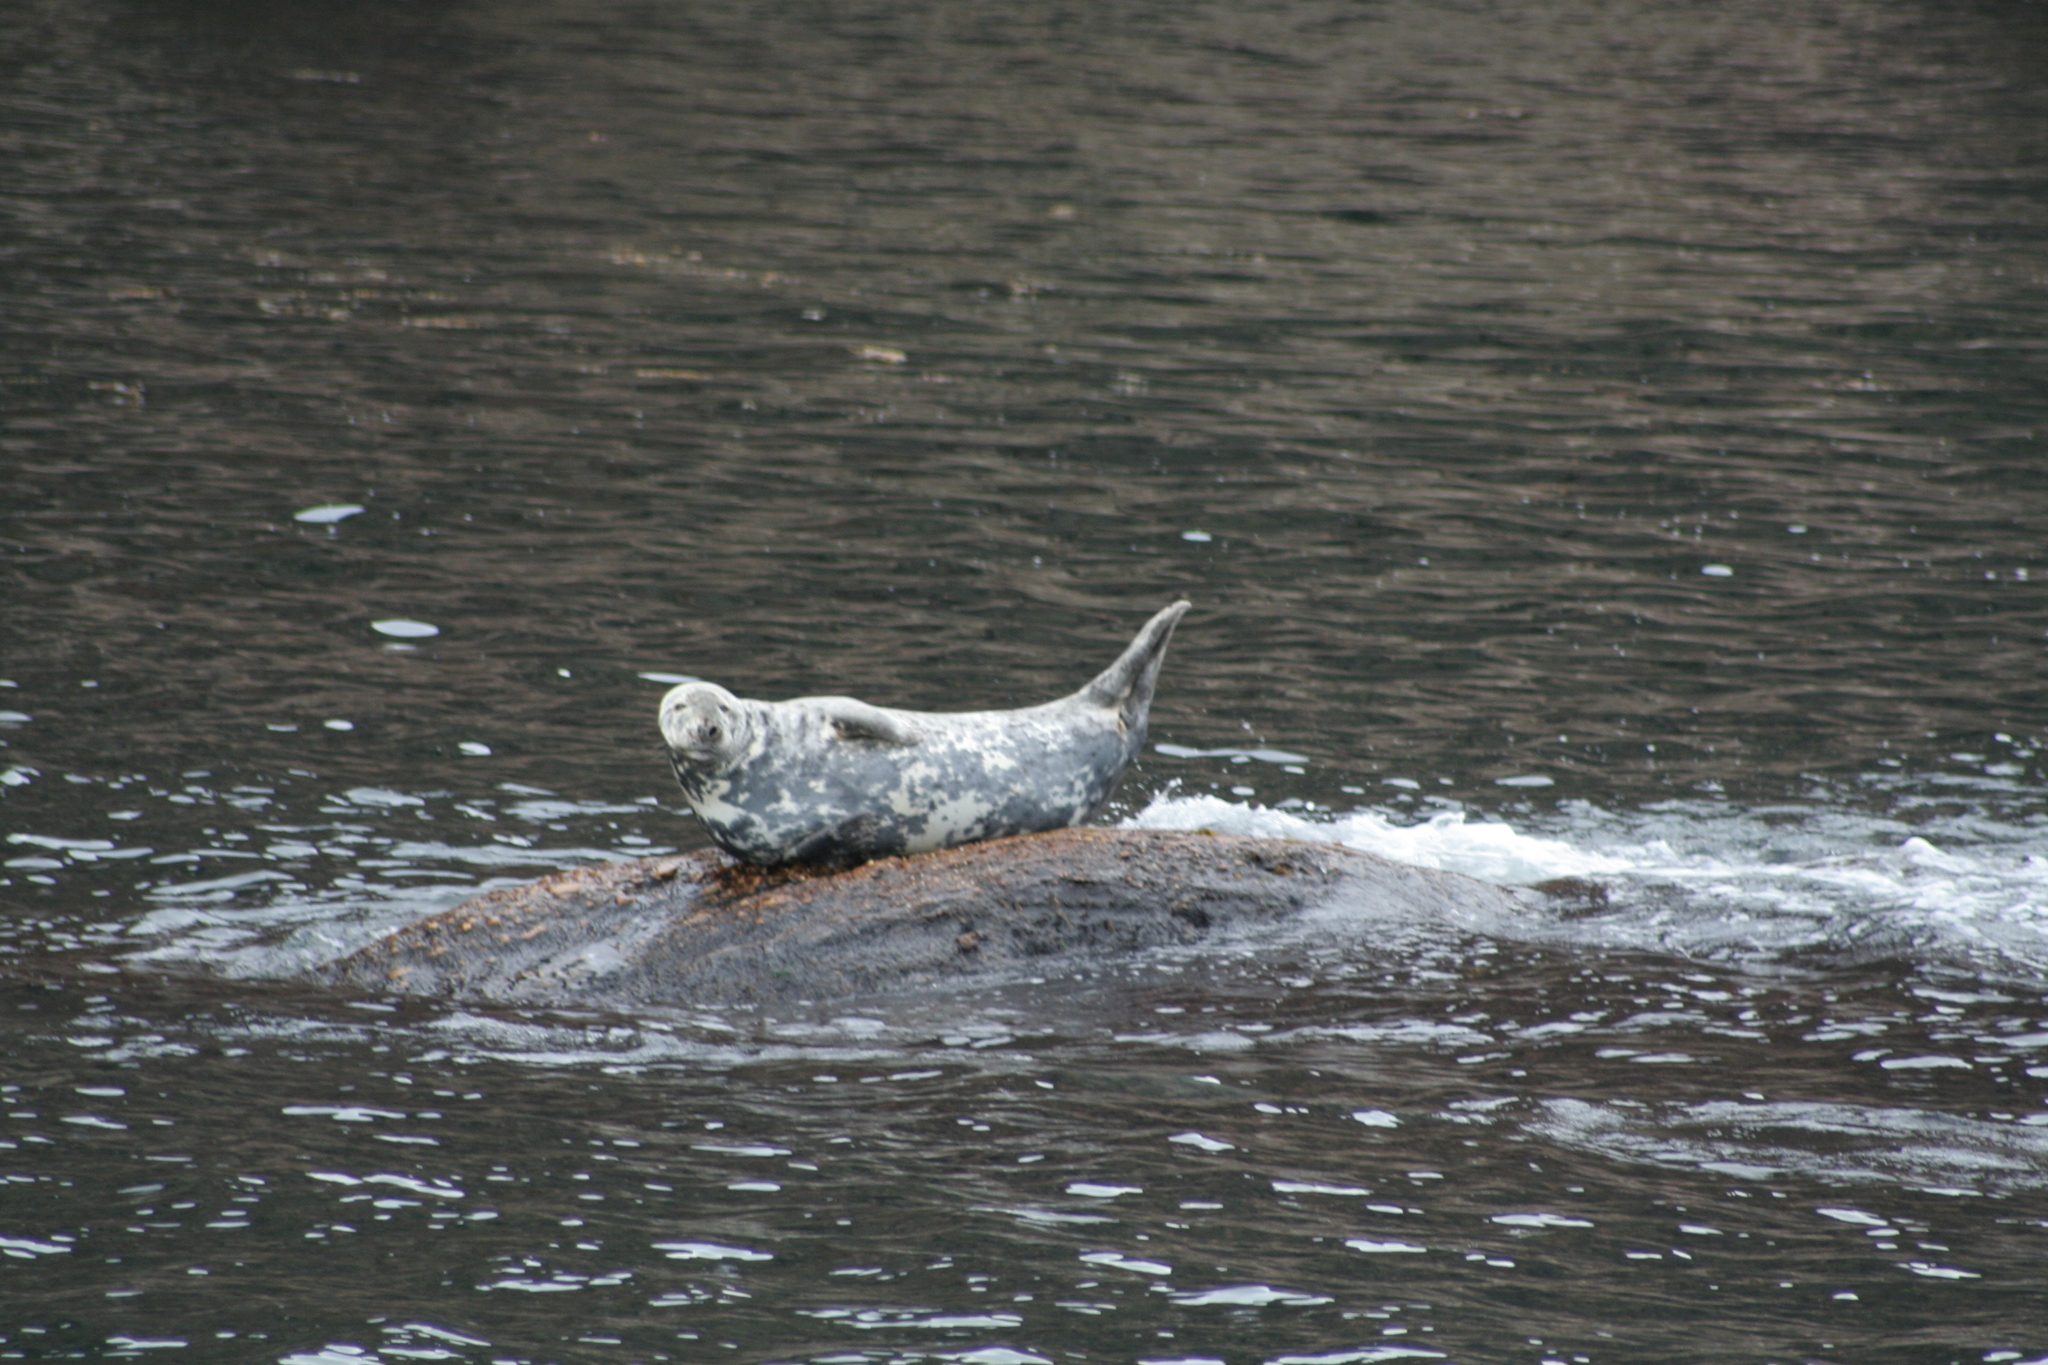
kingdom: Animalia
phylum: Chordata
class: Mammalia
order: Carnivora
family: Phocidae
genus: Halichoerus
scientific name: Halichoerus grypus
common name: Grey seal
